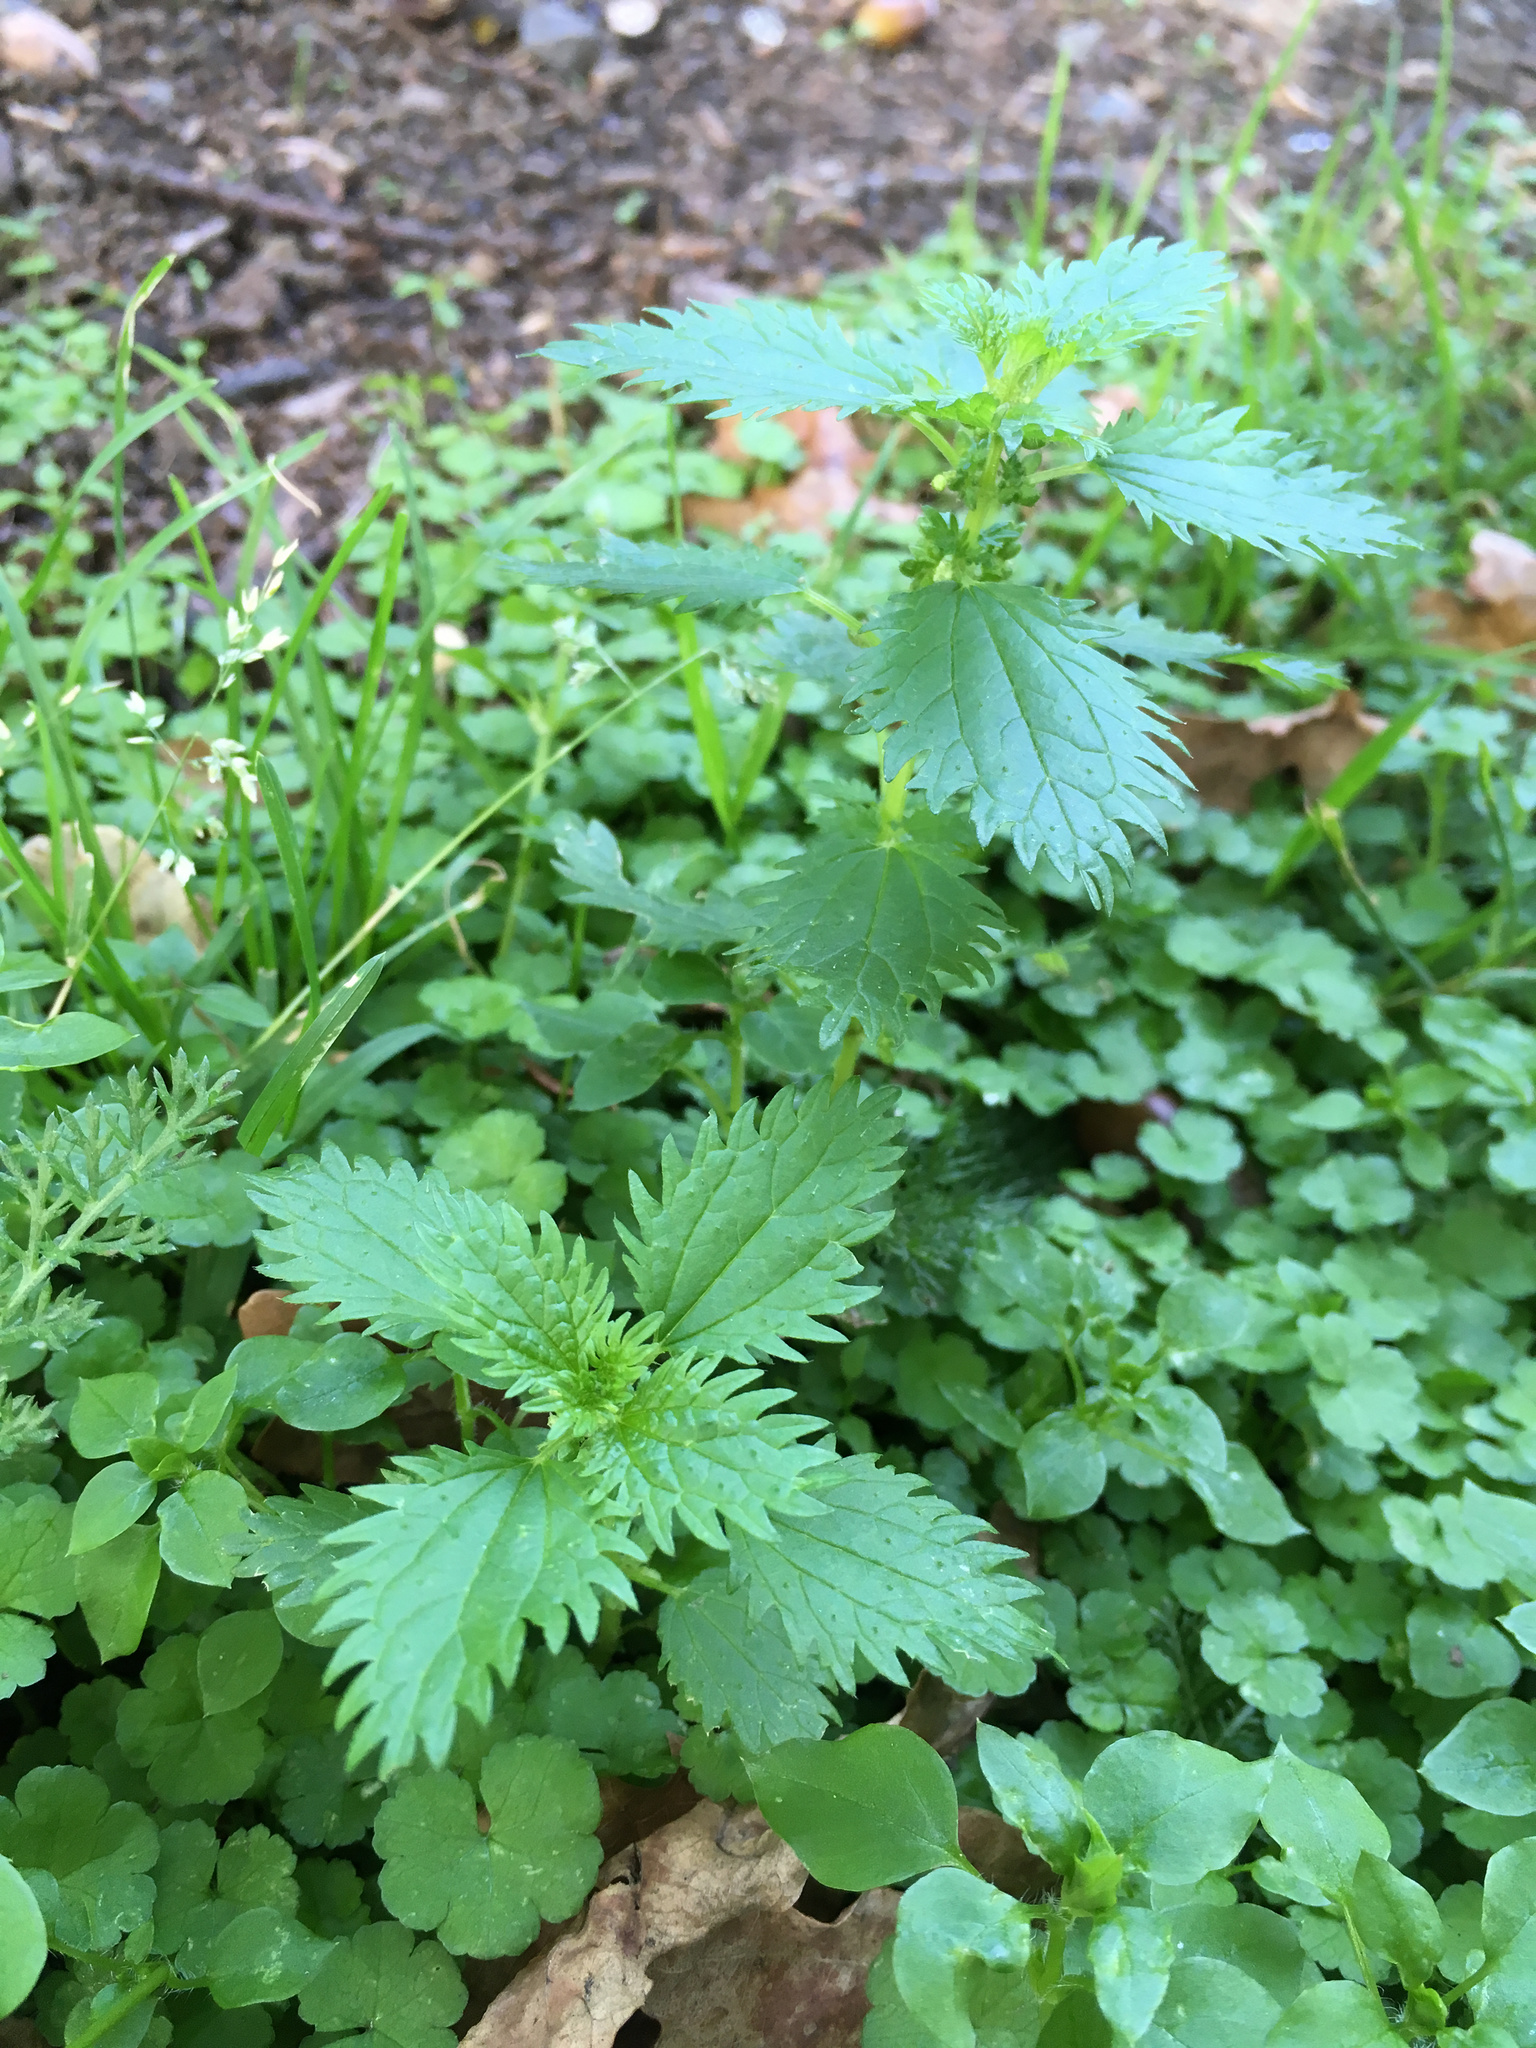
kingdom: Plantae
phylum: Tracheophyta
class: Magnoliopsida
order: Rosales
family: Urticaceae
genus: Urtica
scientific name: Urtica urens
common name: Dwarf nettle
